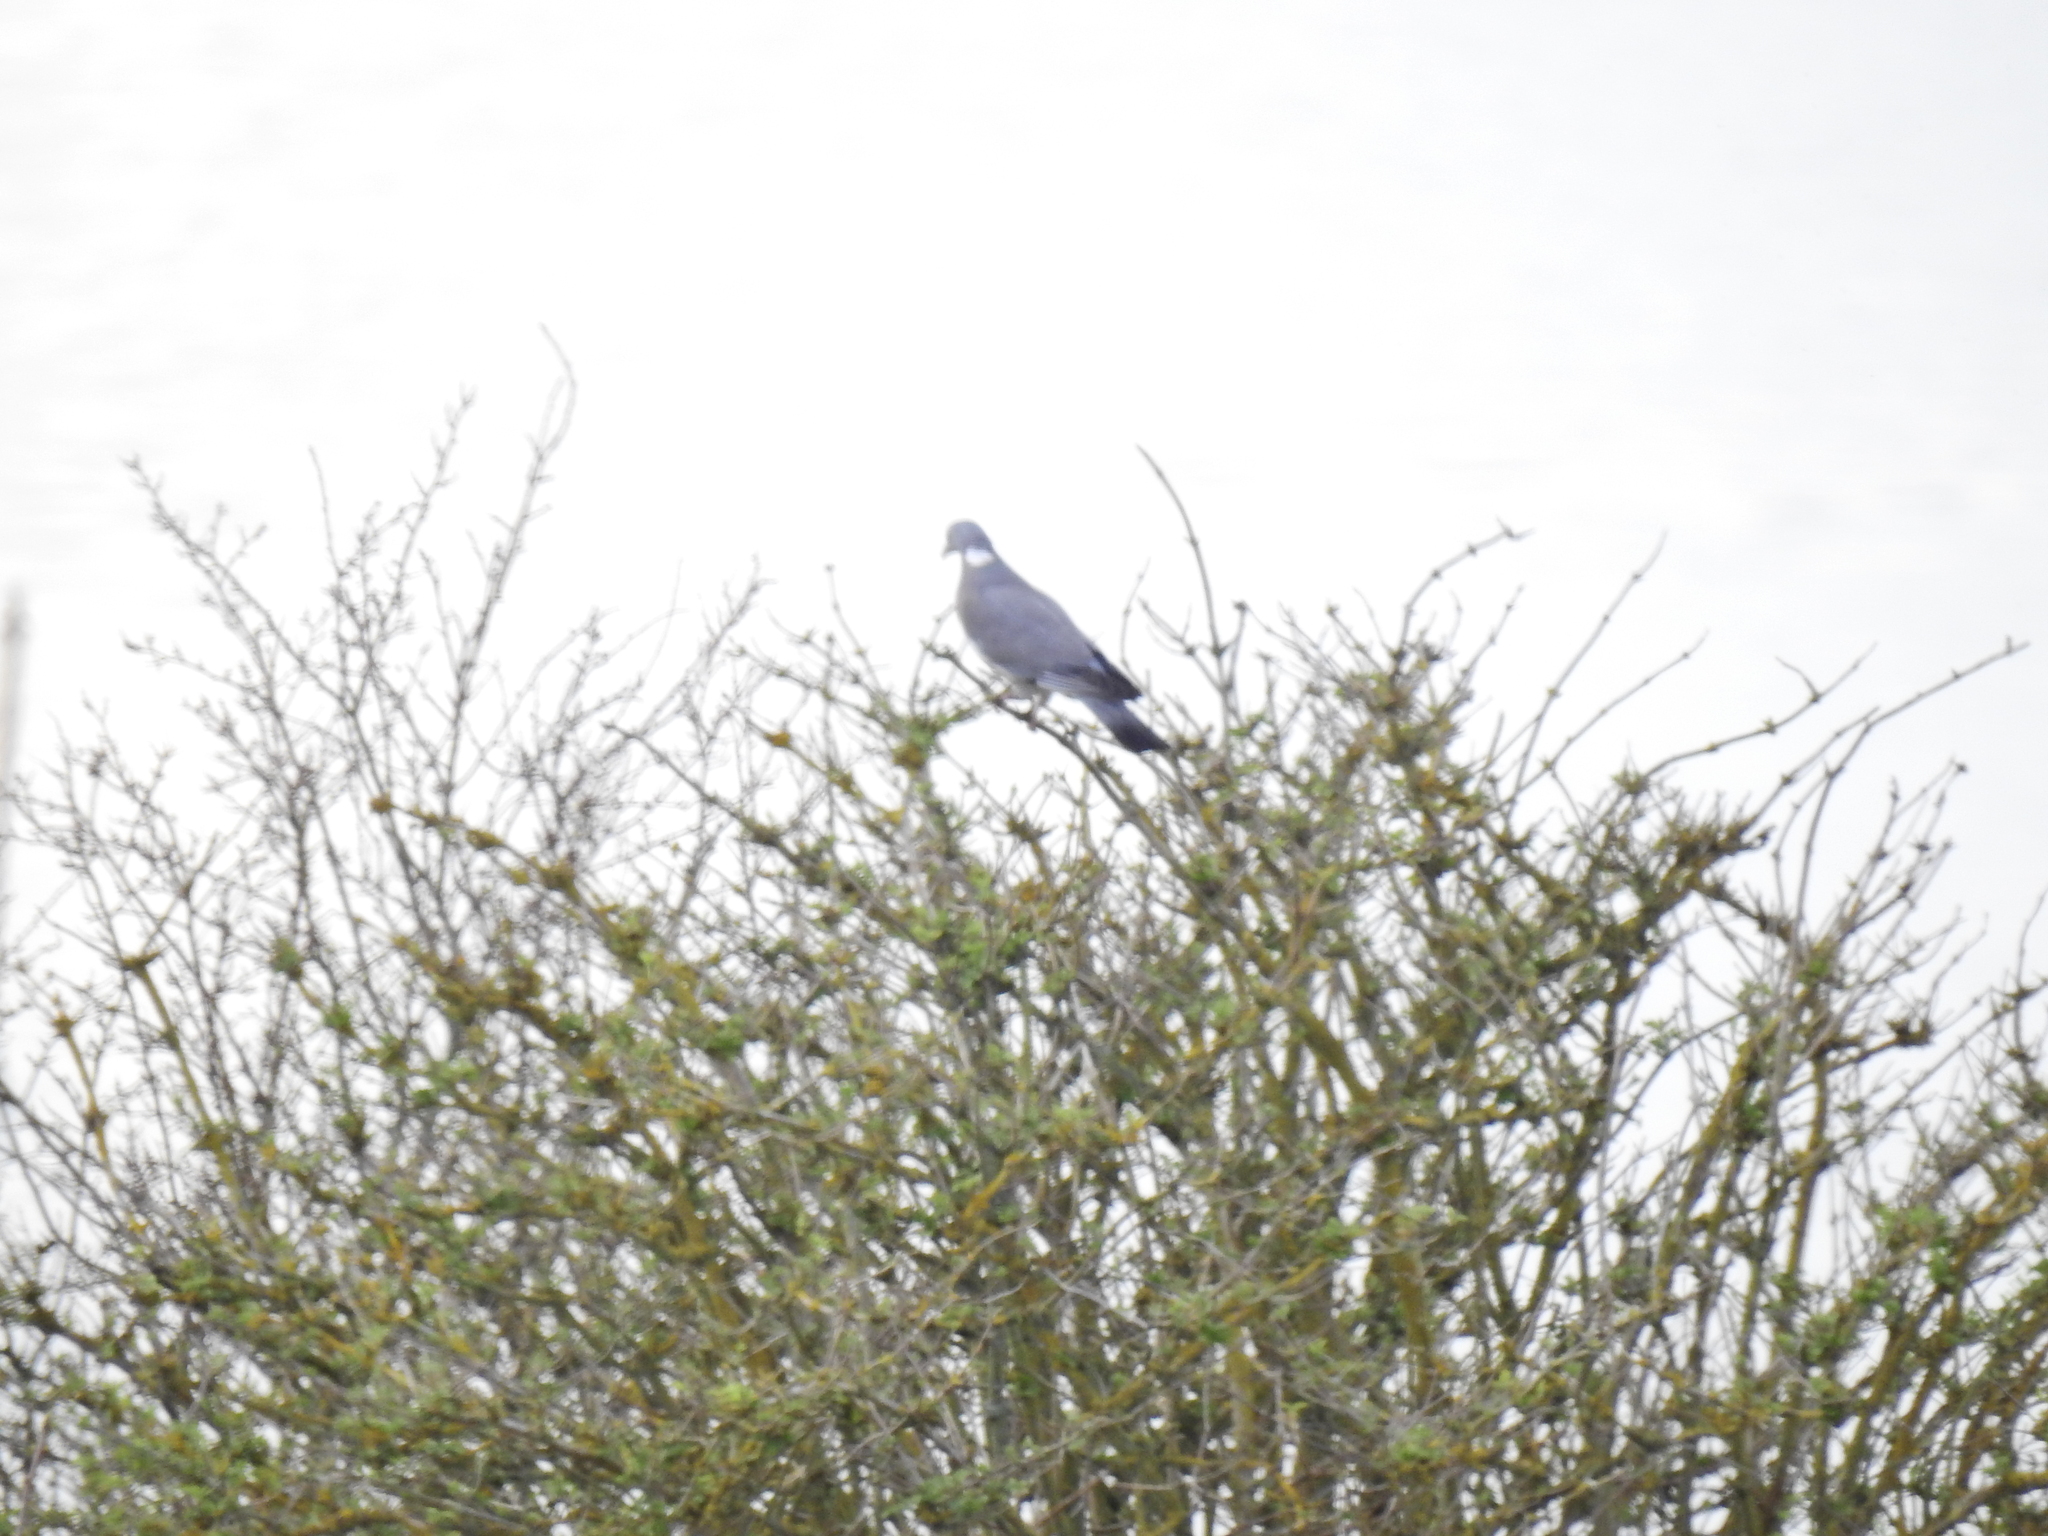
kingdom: Animalia
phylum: Chordata
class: Aves
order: Columbiformes
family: Columbidae
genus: Columba
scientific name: Columba palumbus
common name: Common wood pigeon
